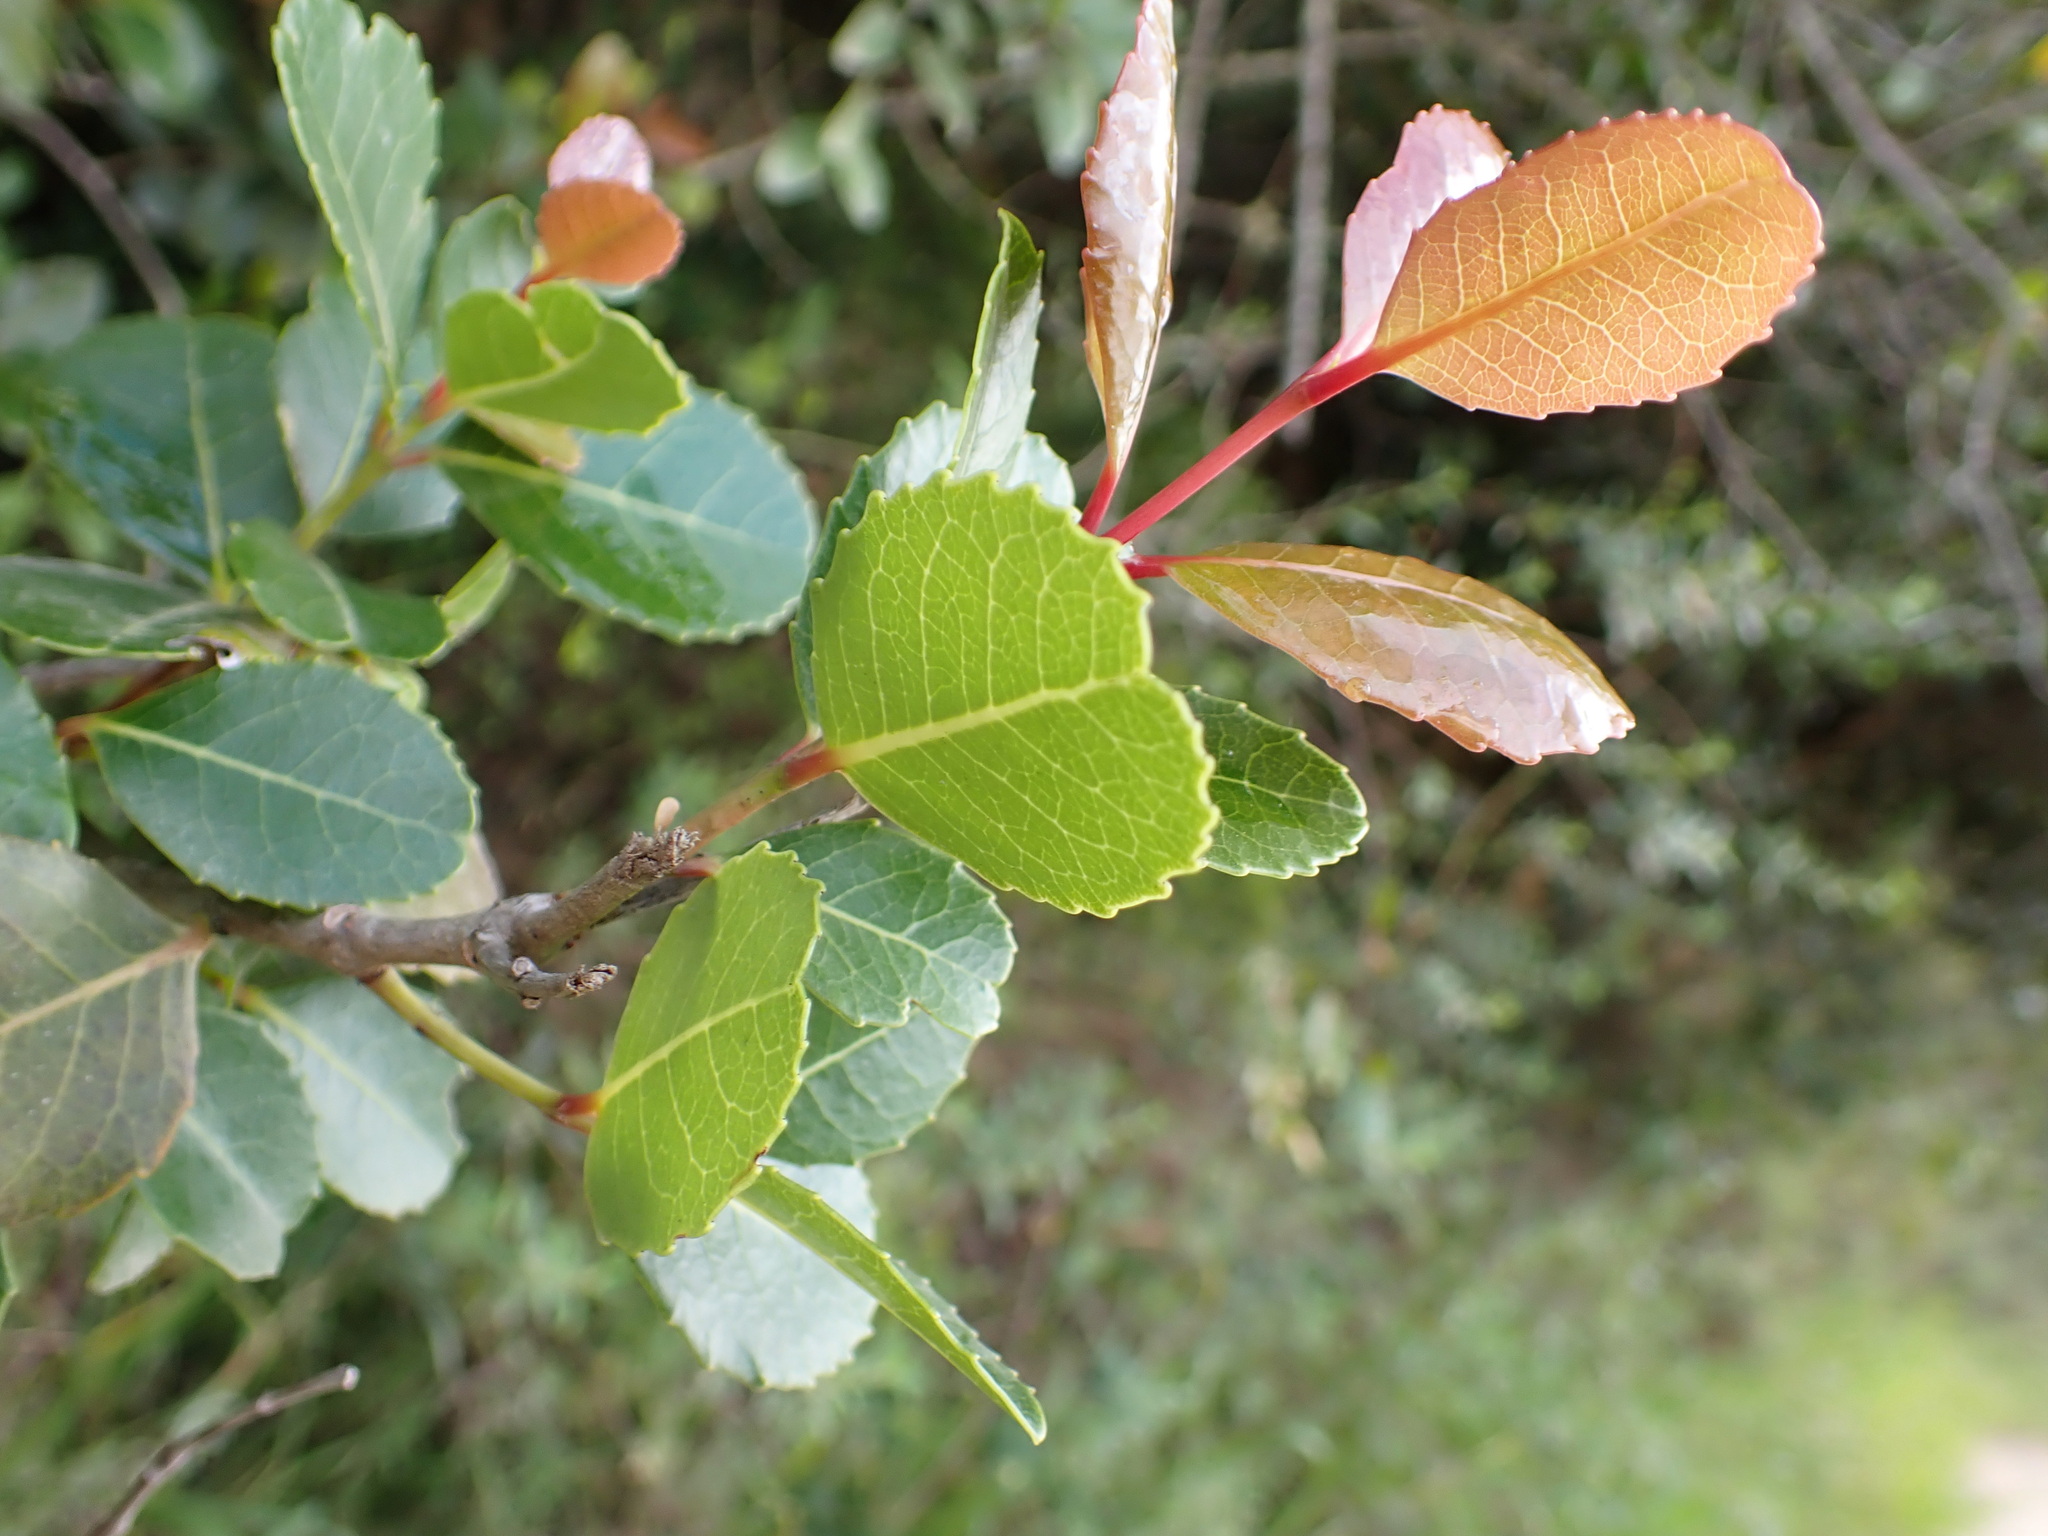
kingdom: Plantae
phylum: Tracheophyta
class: Magnoliopsida
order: Celastrales
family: Celastraceae
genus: Cassine
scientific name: Cassine peragua
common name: Cape saffron
